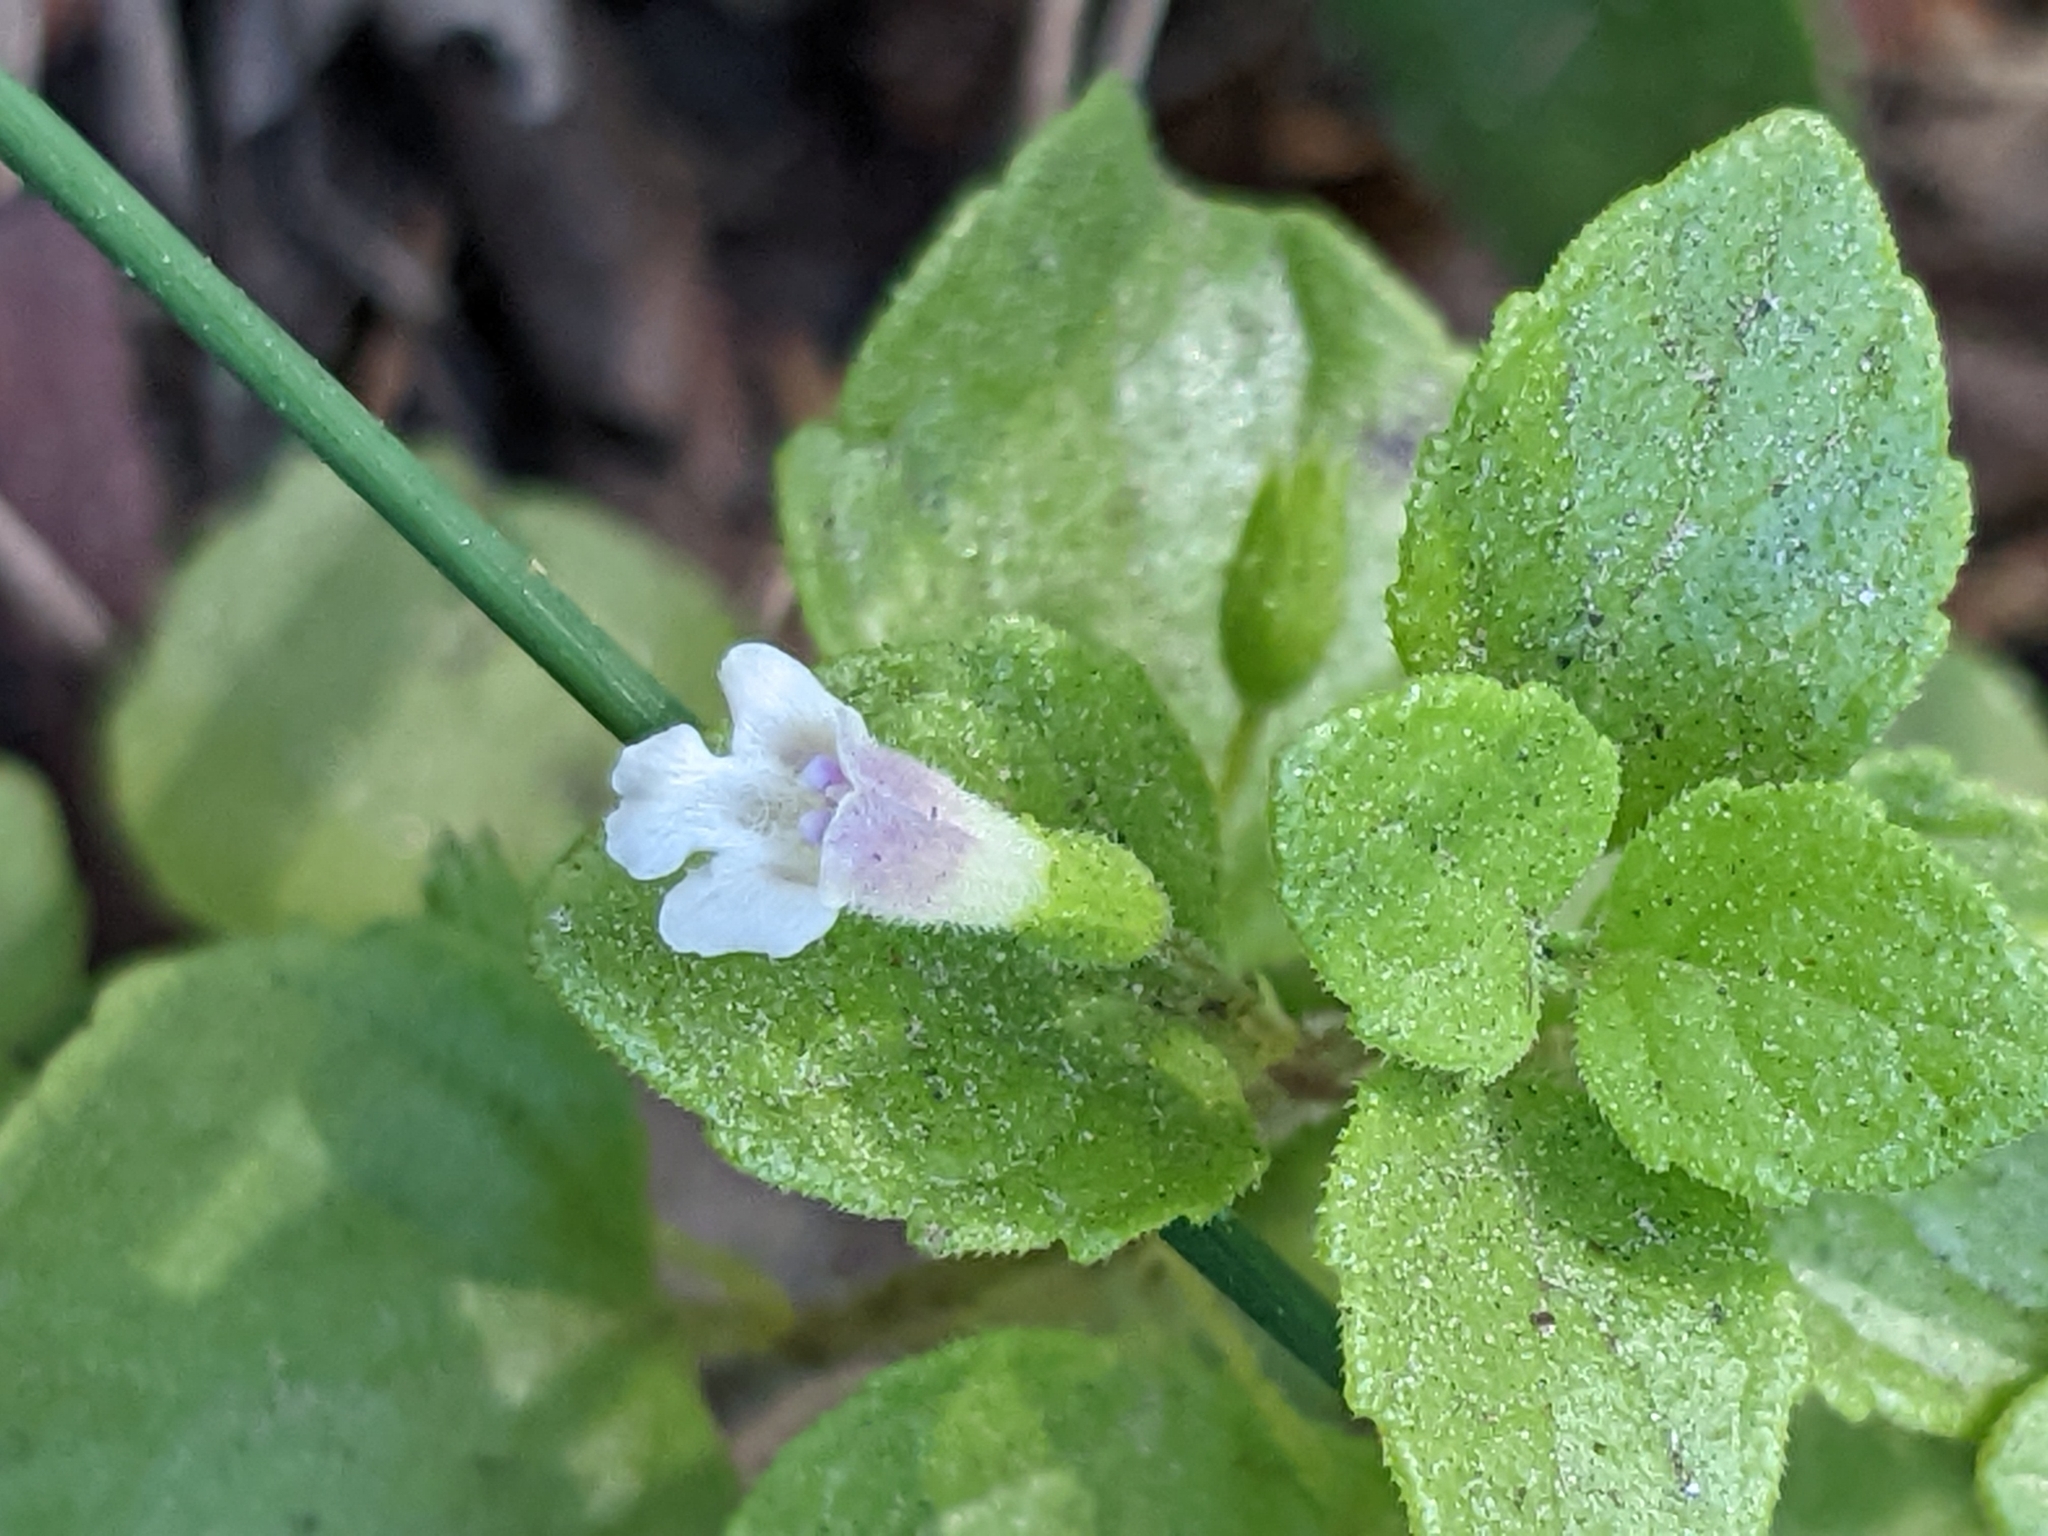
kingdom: Plantae
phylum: Tracheophyta
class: Magnoliopsida
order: Lamiales
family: Lamiaceae
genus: Micromeria
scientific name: Micromeria douglasii
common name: Yerba buena
